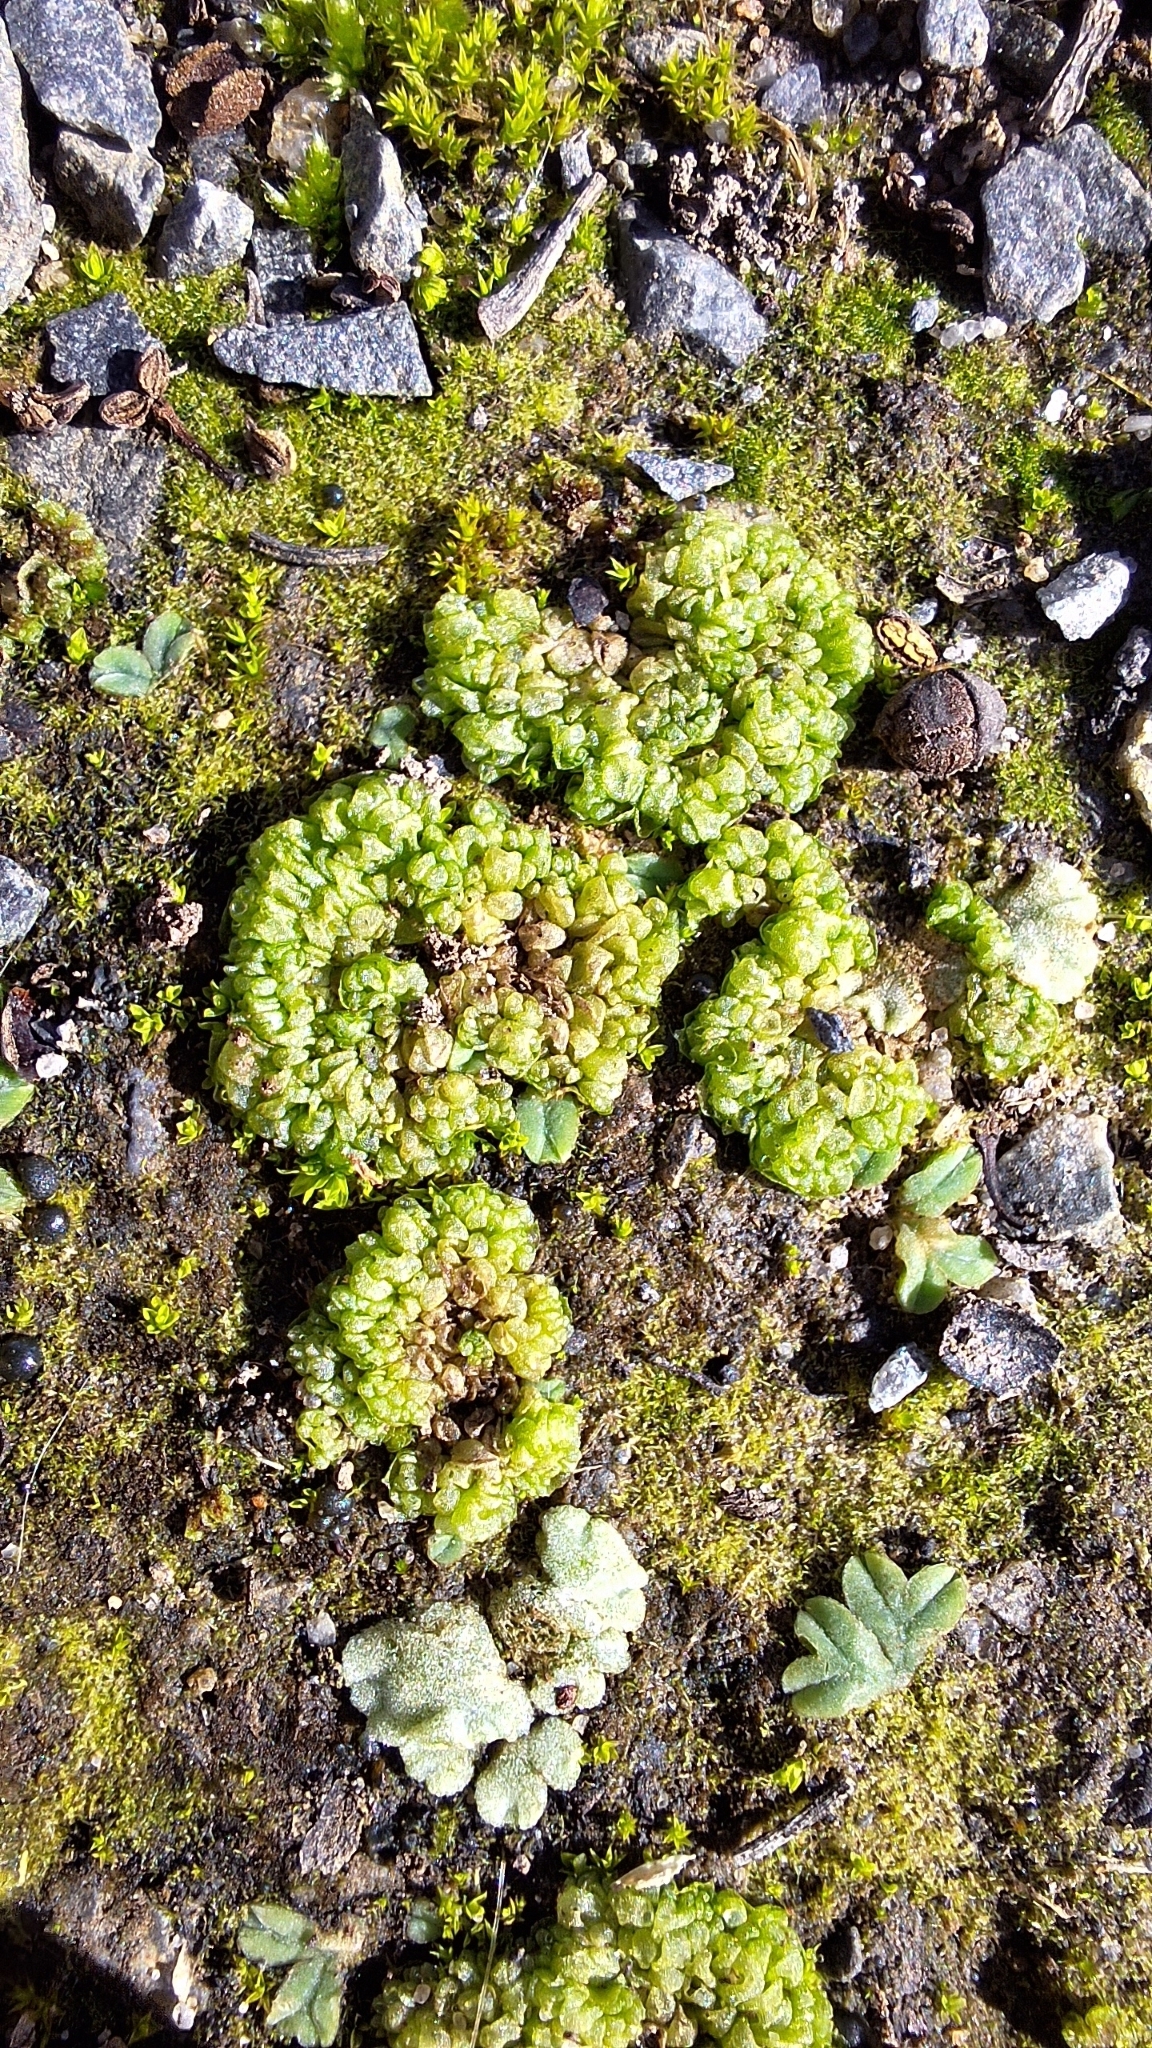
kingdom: Plantae
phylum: Marchantiophyta
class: Marchantiopsida
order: Sphaerocarpales
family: Sphaerocarpaceae
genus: Sphaerocarpos
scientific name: Sphaerocarpos texanus
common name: Texas balloonwort
